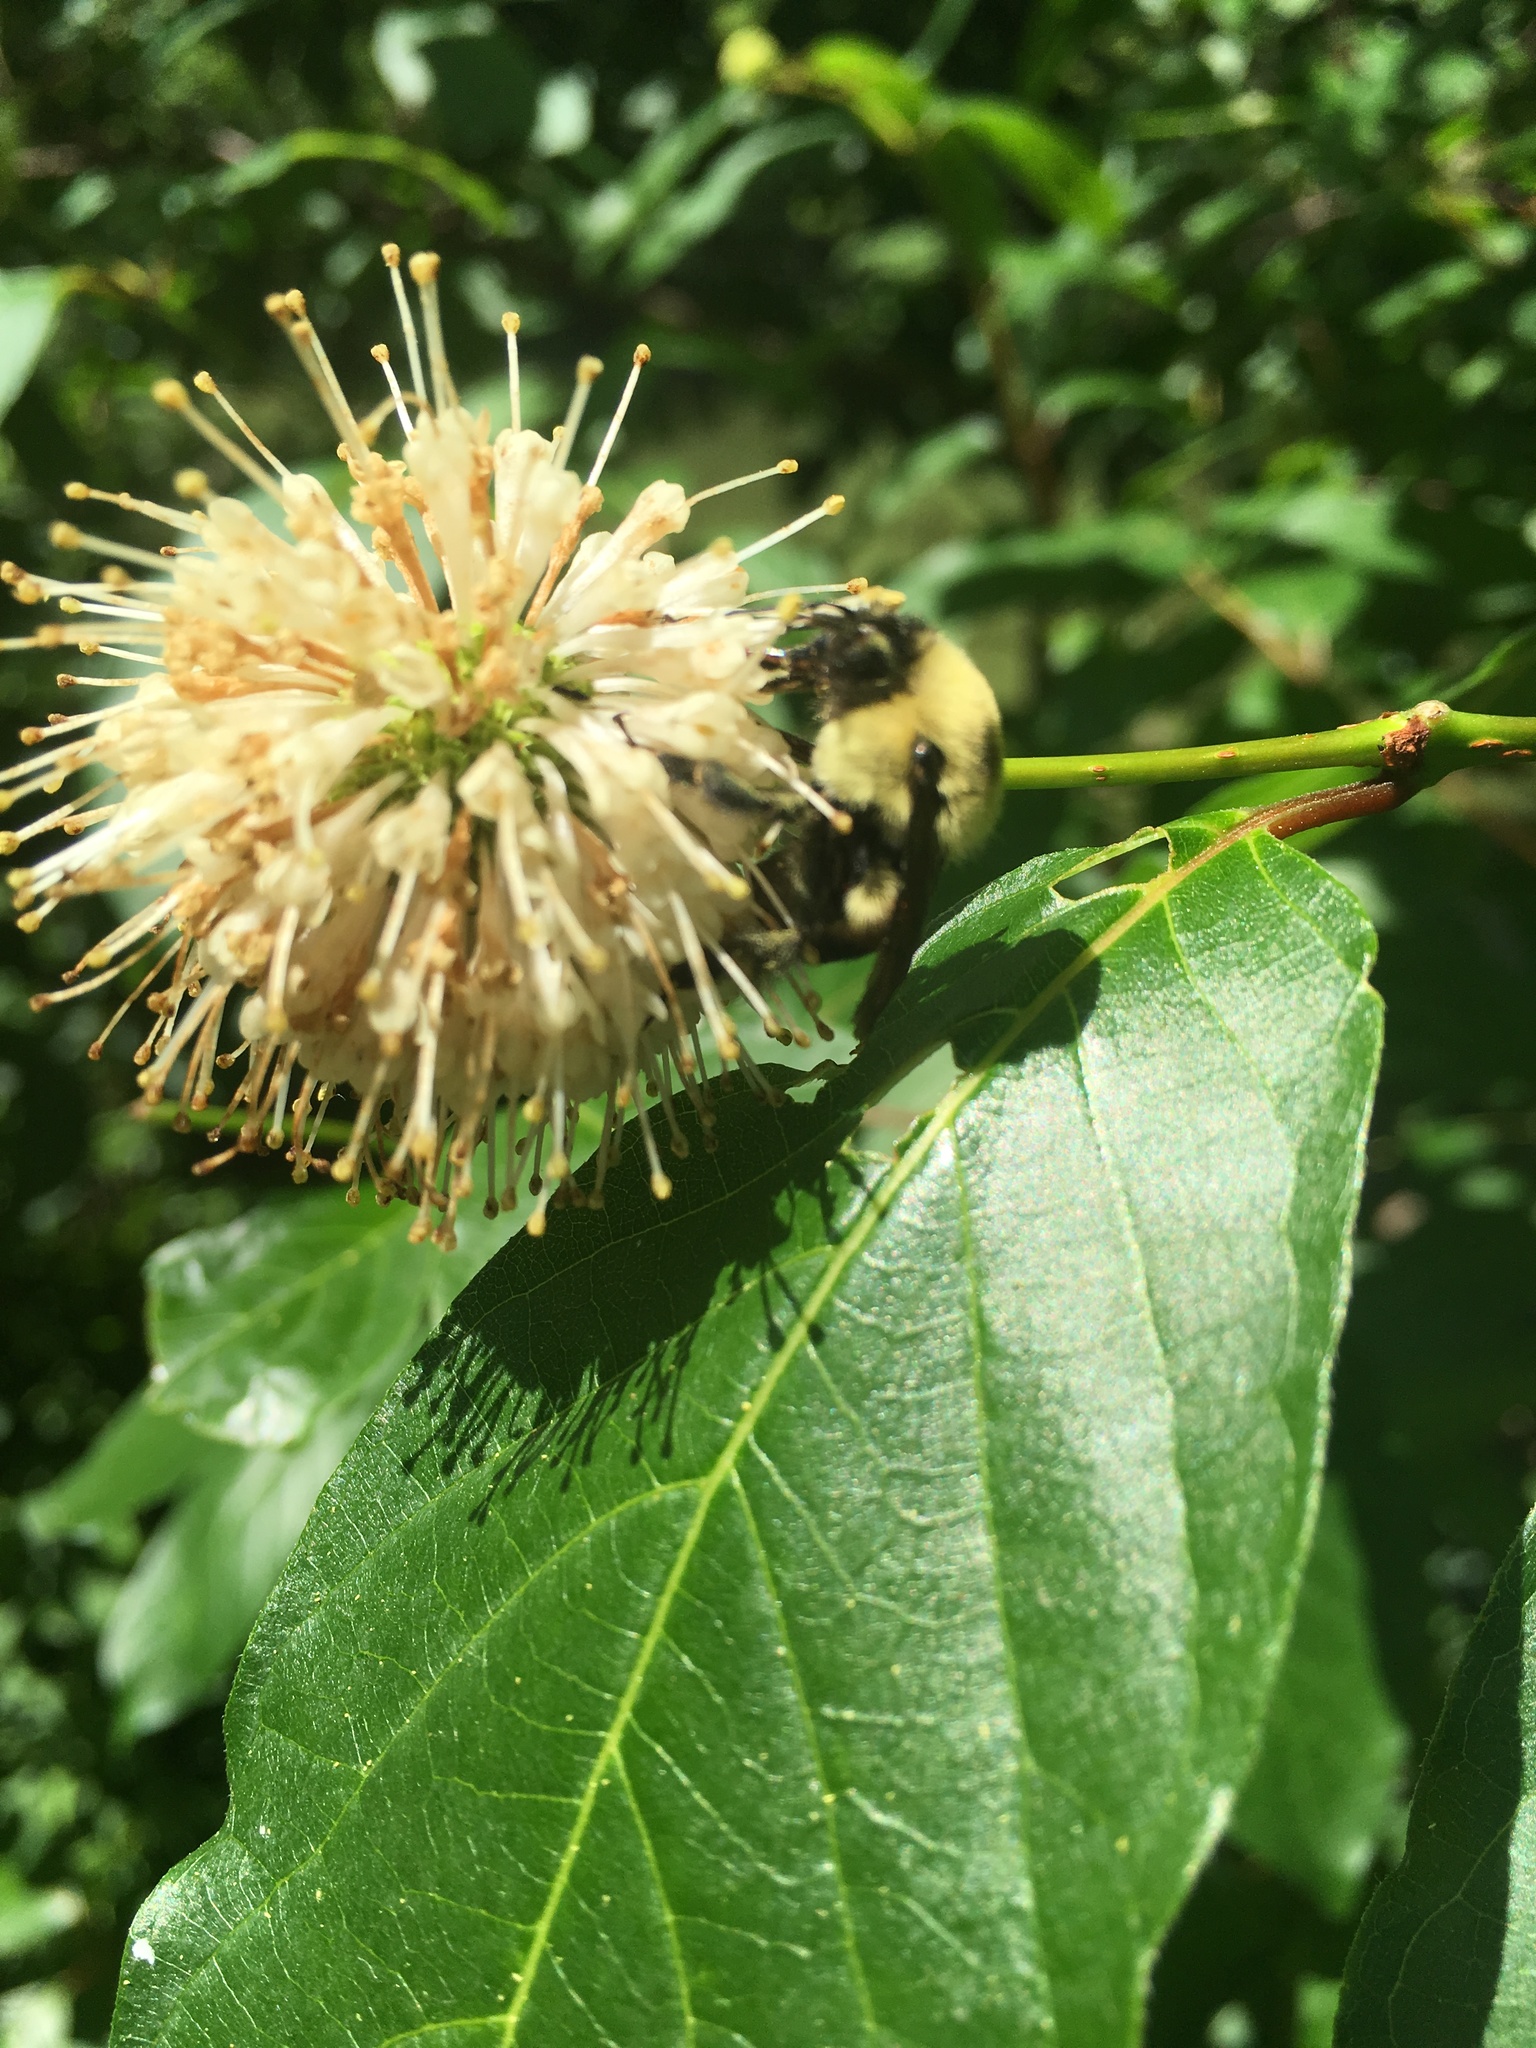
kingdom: Animalia
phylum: Arthropoda
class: Insecta
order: Hymenoptera
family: Apidae
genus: Bombus
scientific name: Bombus griseocollis
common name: Brown-belted bumble bee
